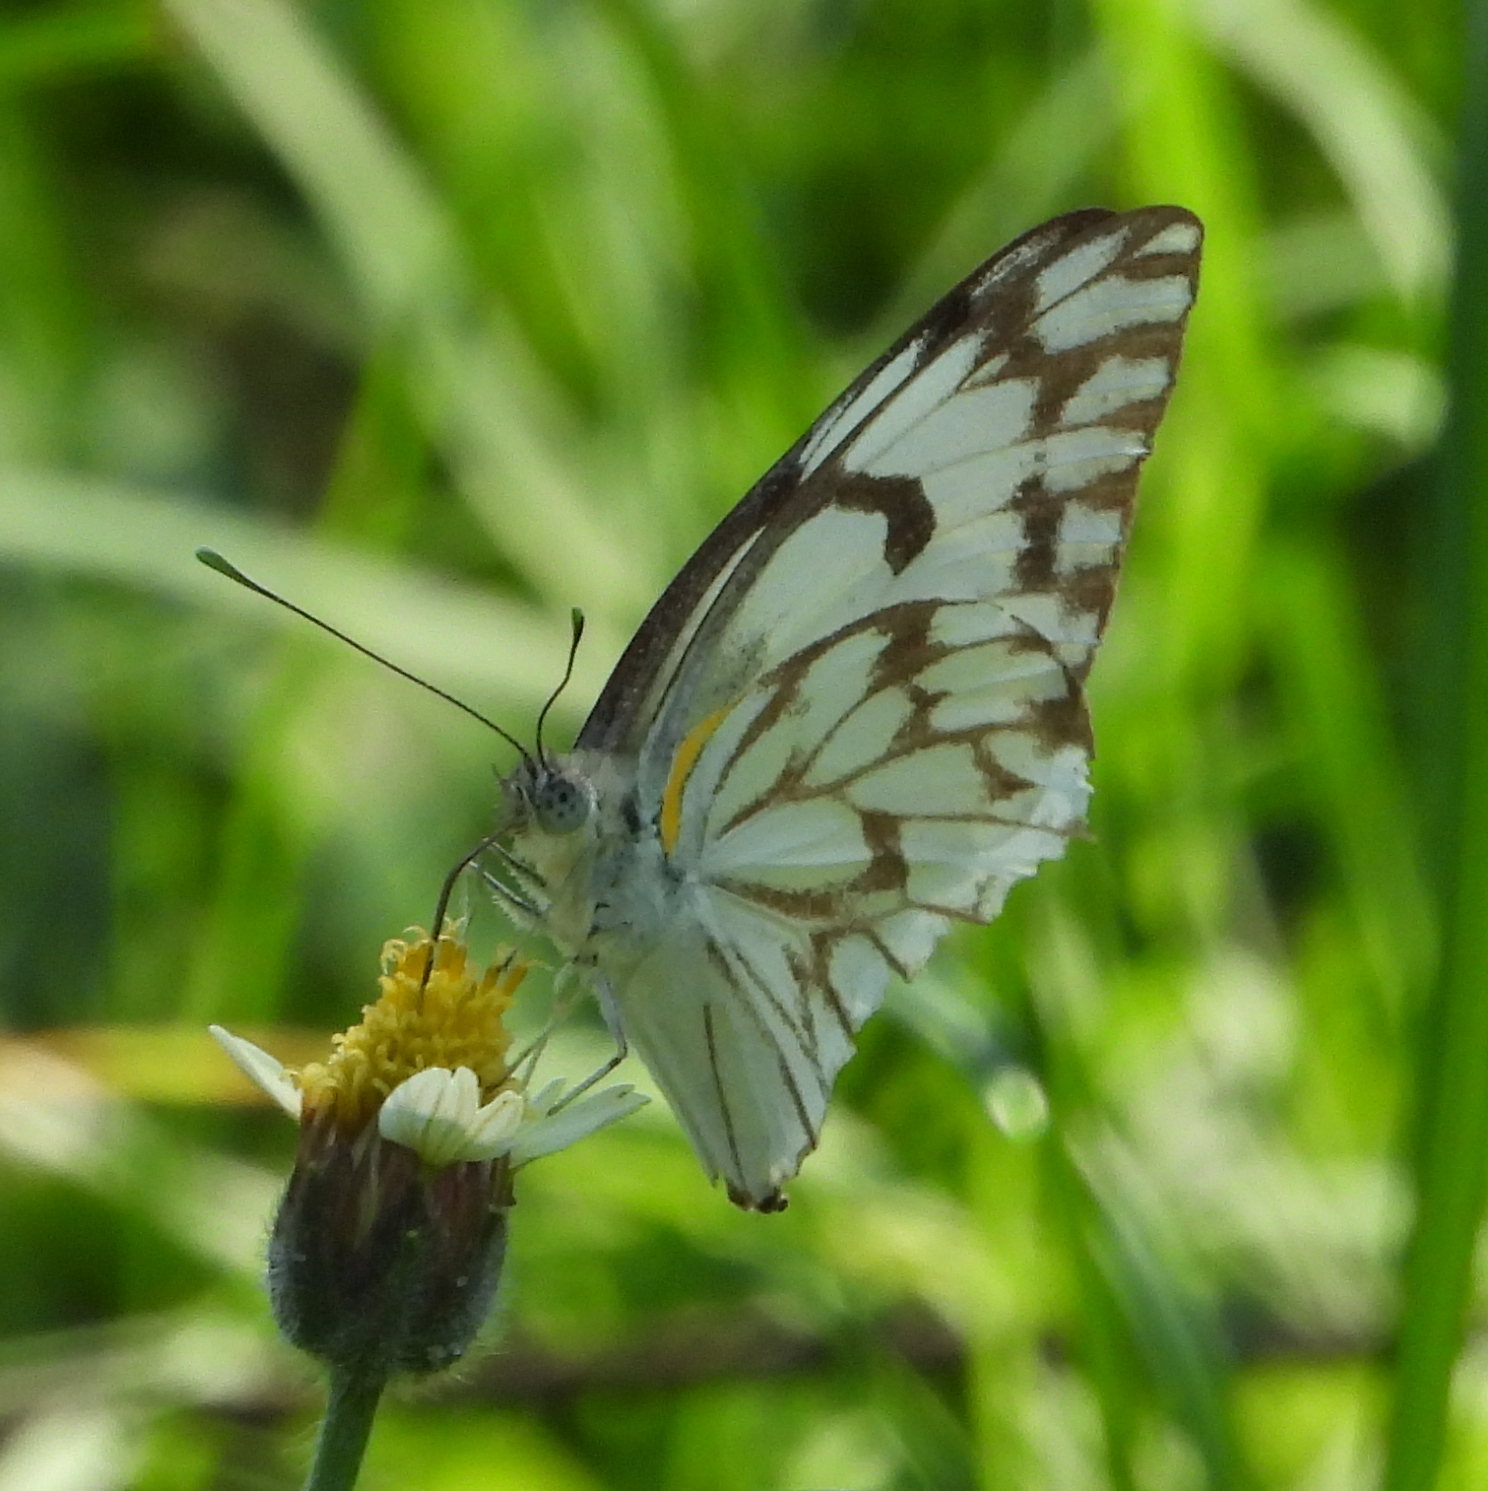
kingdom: Animalia
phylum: Arthropoda
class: Insecta
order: Lepidoptera
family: Pieridae
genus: Belenois
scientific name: Belenois gidica
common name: Pointed caper white
